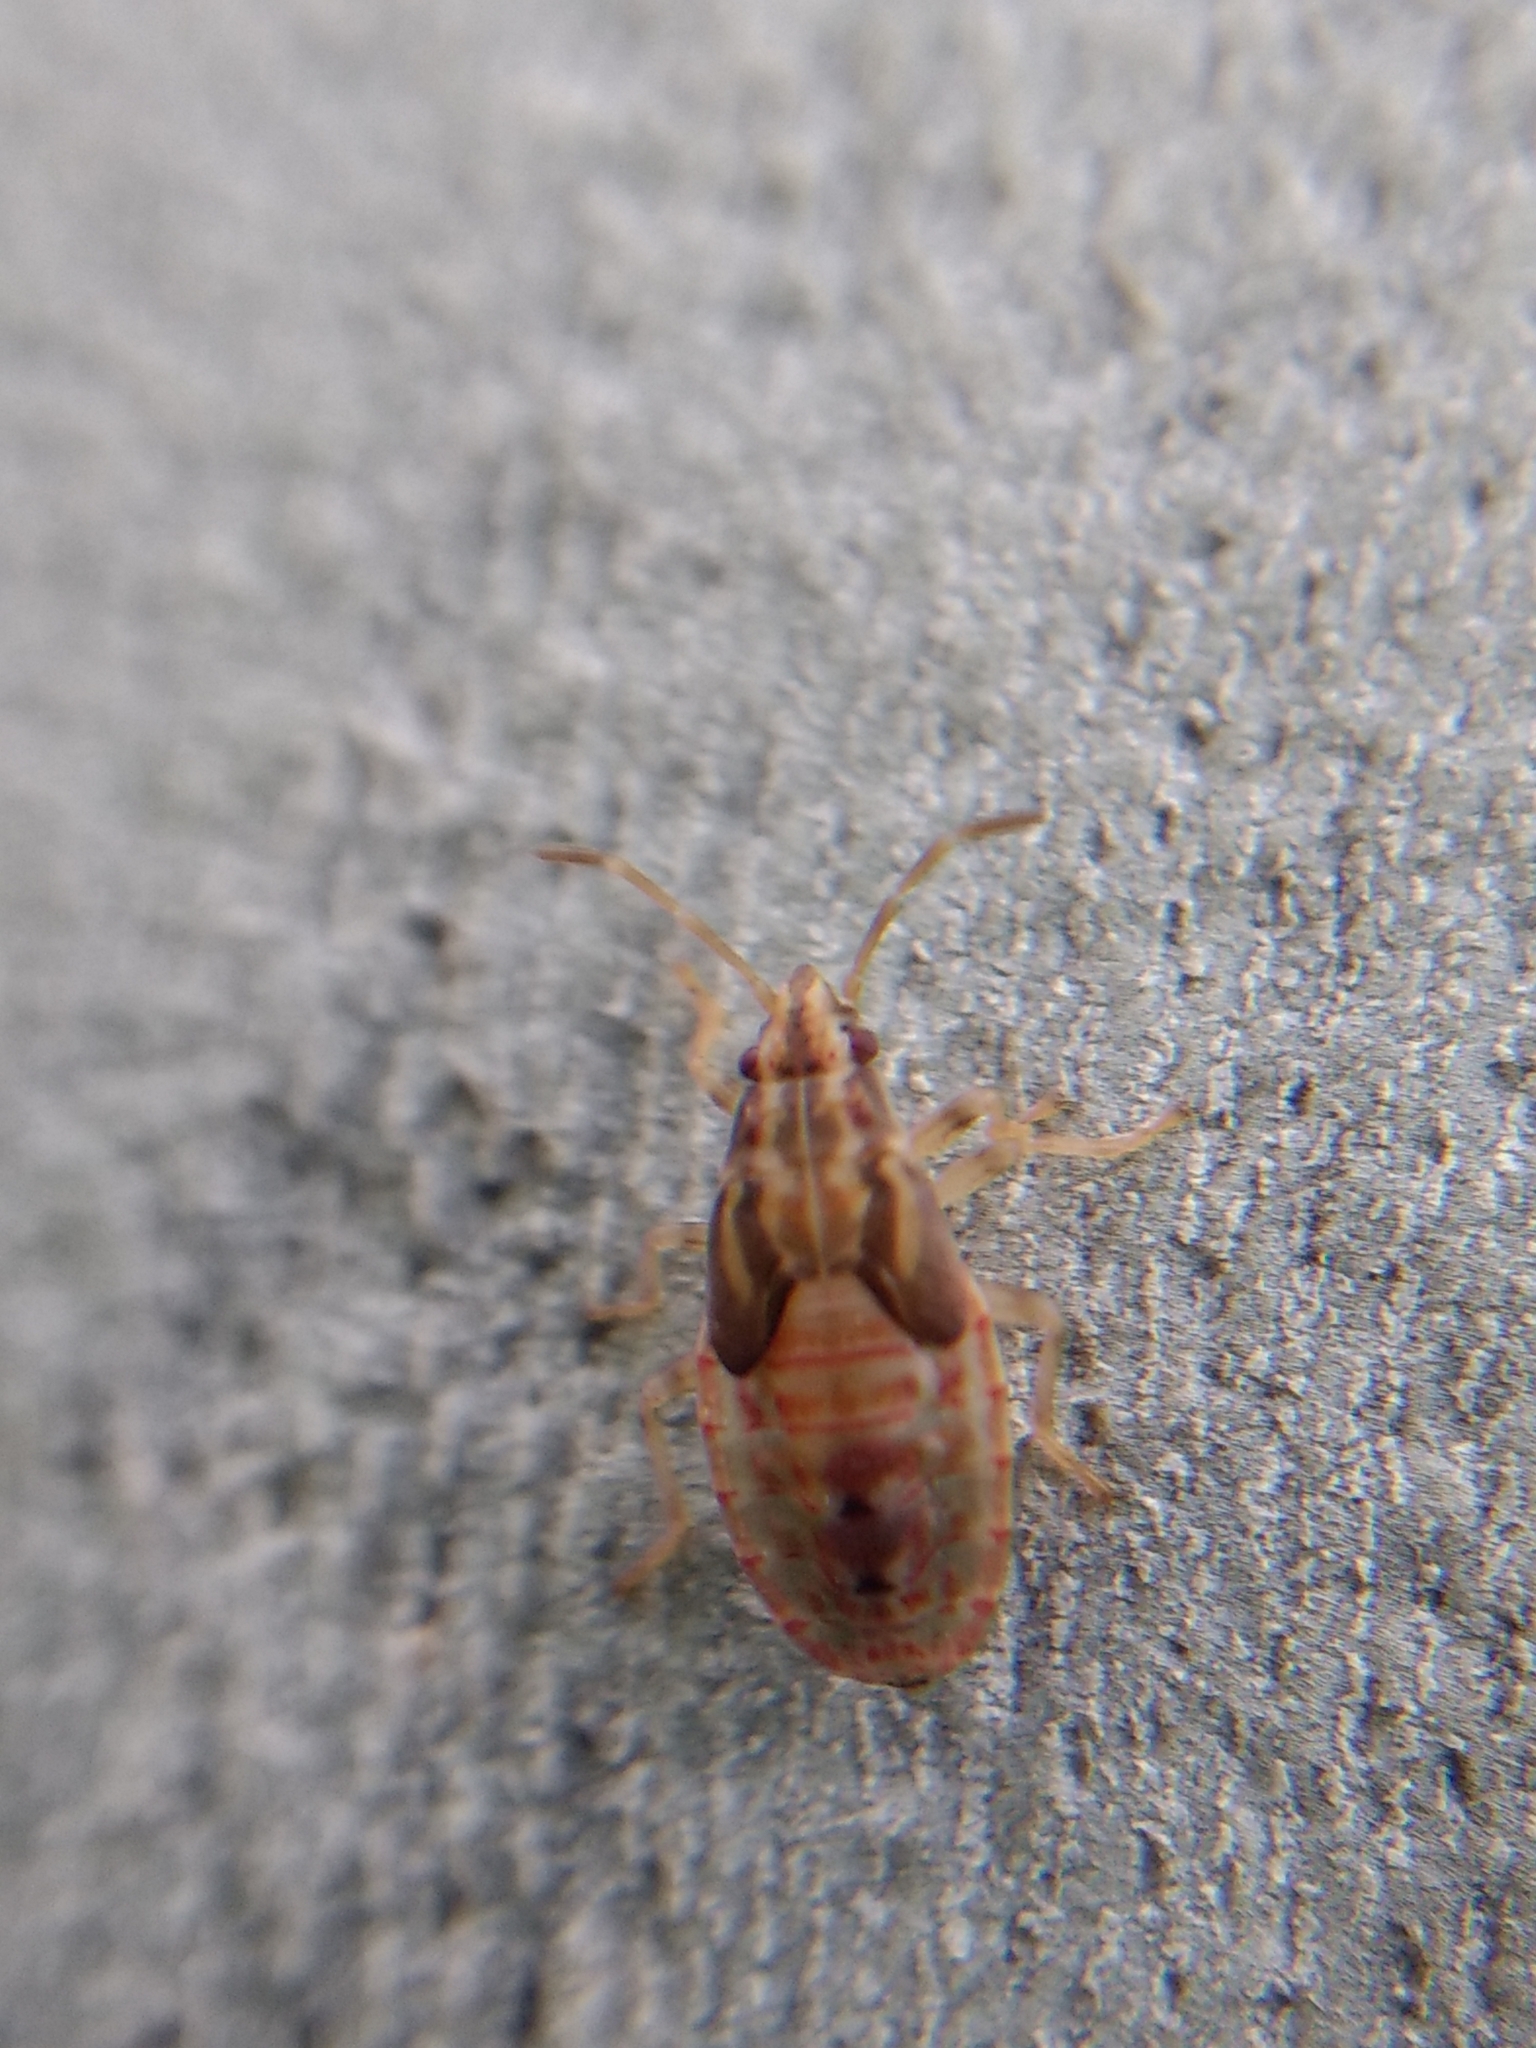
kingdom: Animalia
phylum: Arthropoda
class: Insecta
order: Hemiptera
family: Lygaeidae
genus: Belonochilus
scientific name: Belonochilus numenius
